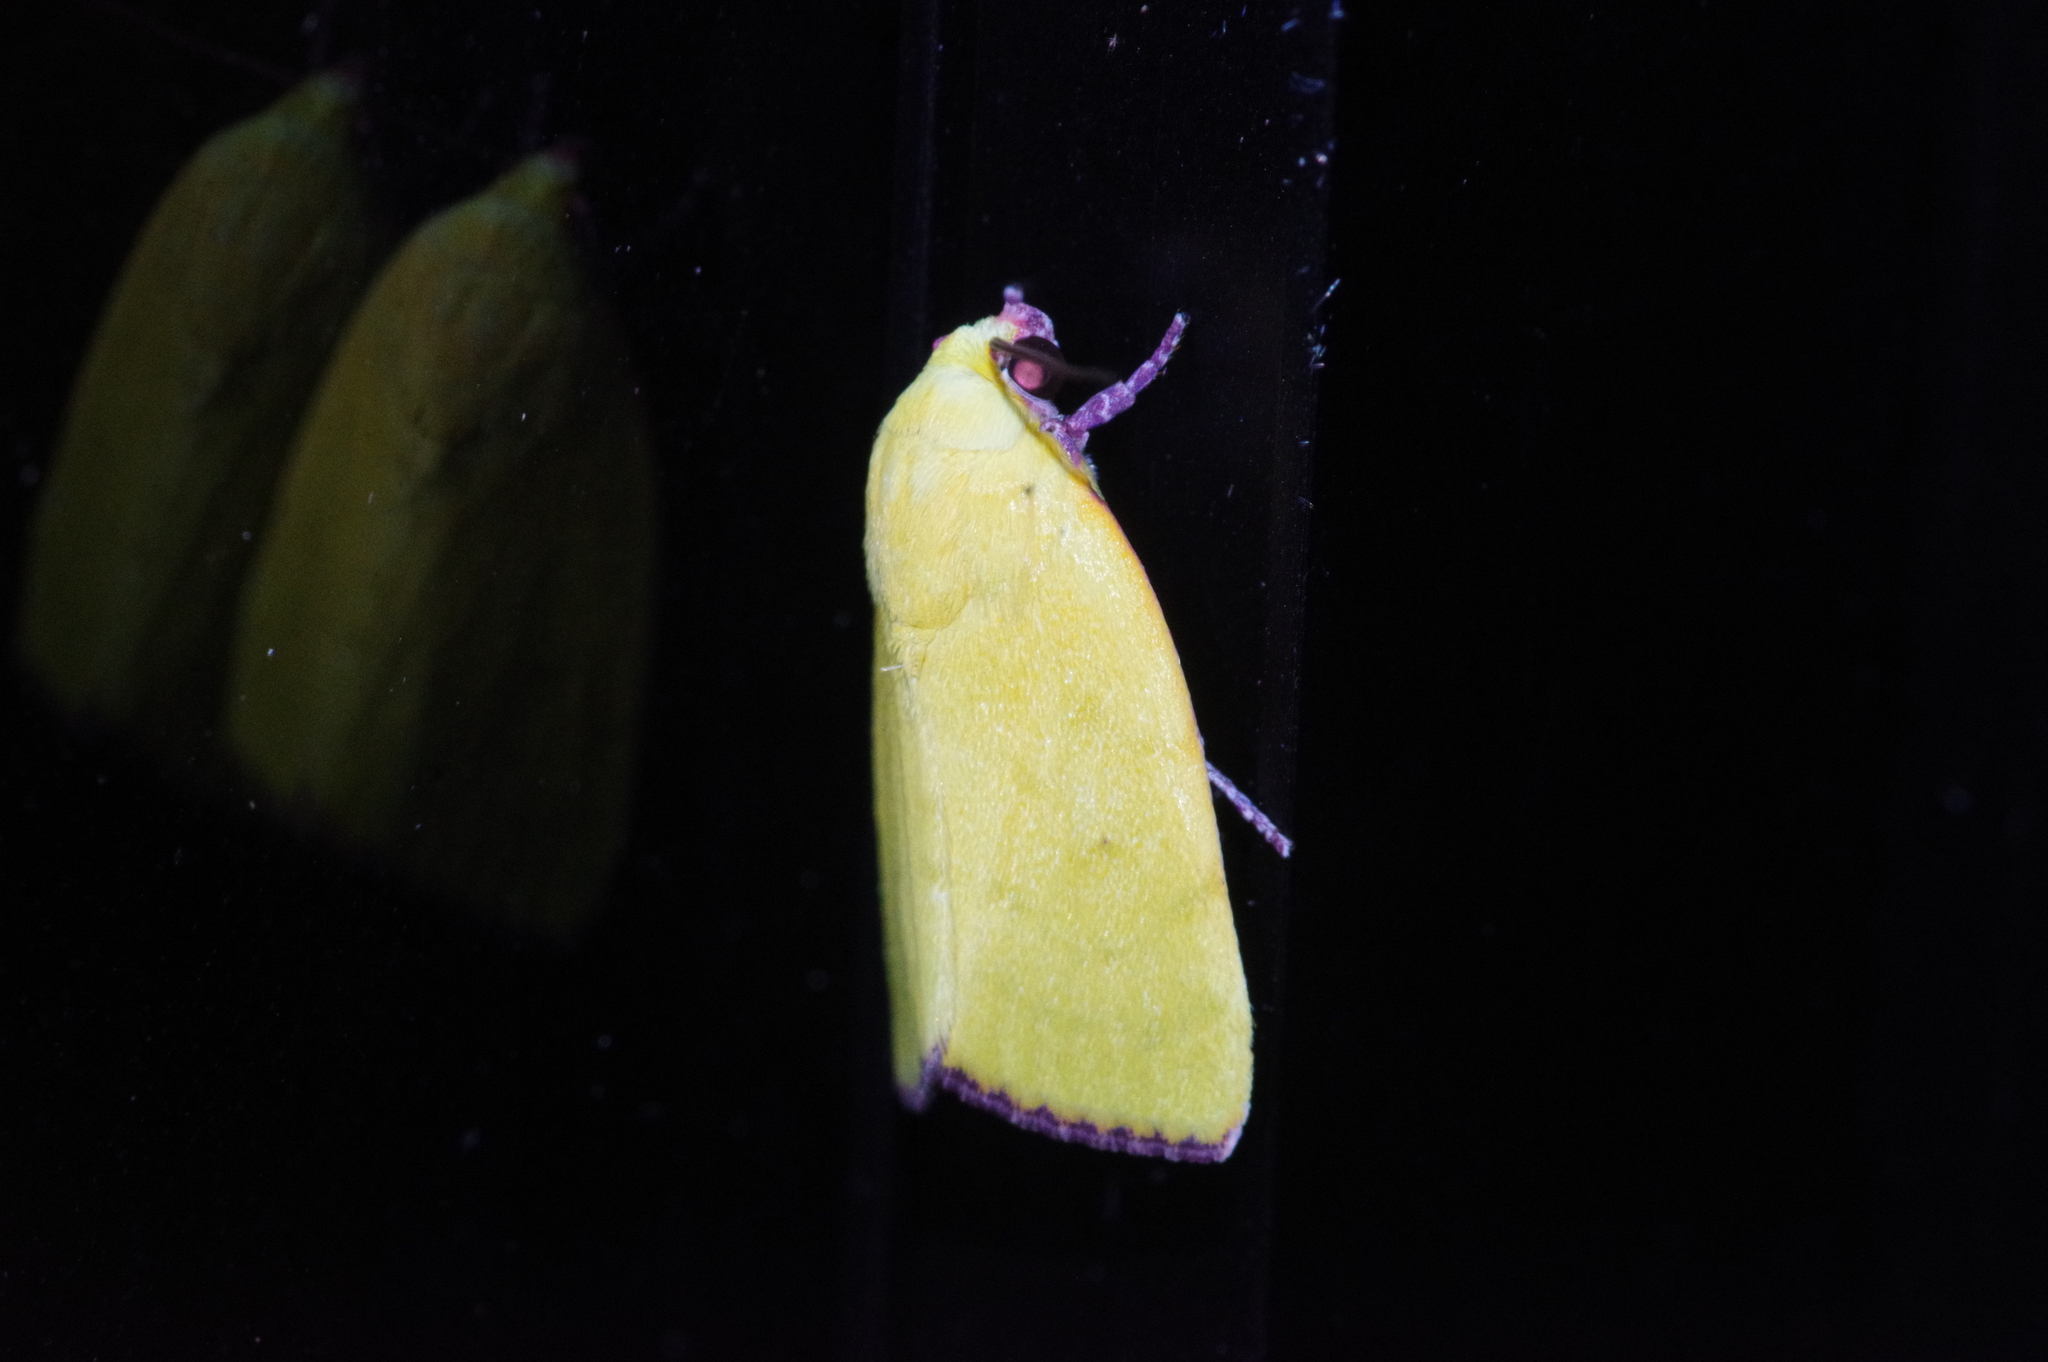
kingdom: Animalia
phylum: Arthropoda
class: Insecta
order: Lepidoptera
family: Nolidae
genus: Earias
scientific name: Earias cupreoviridis
